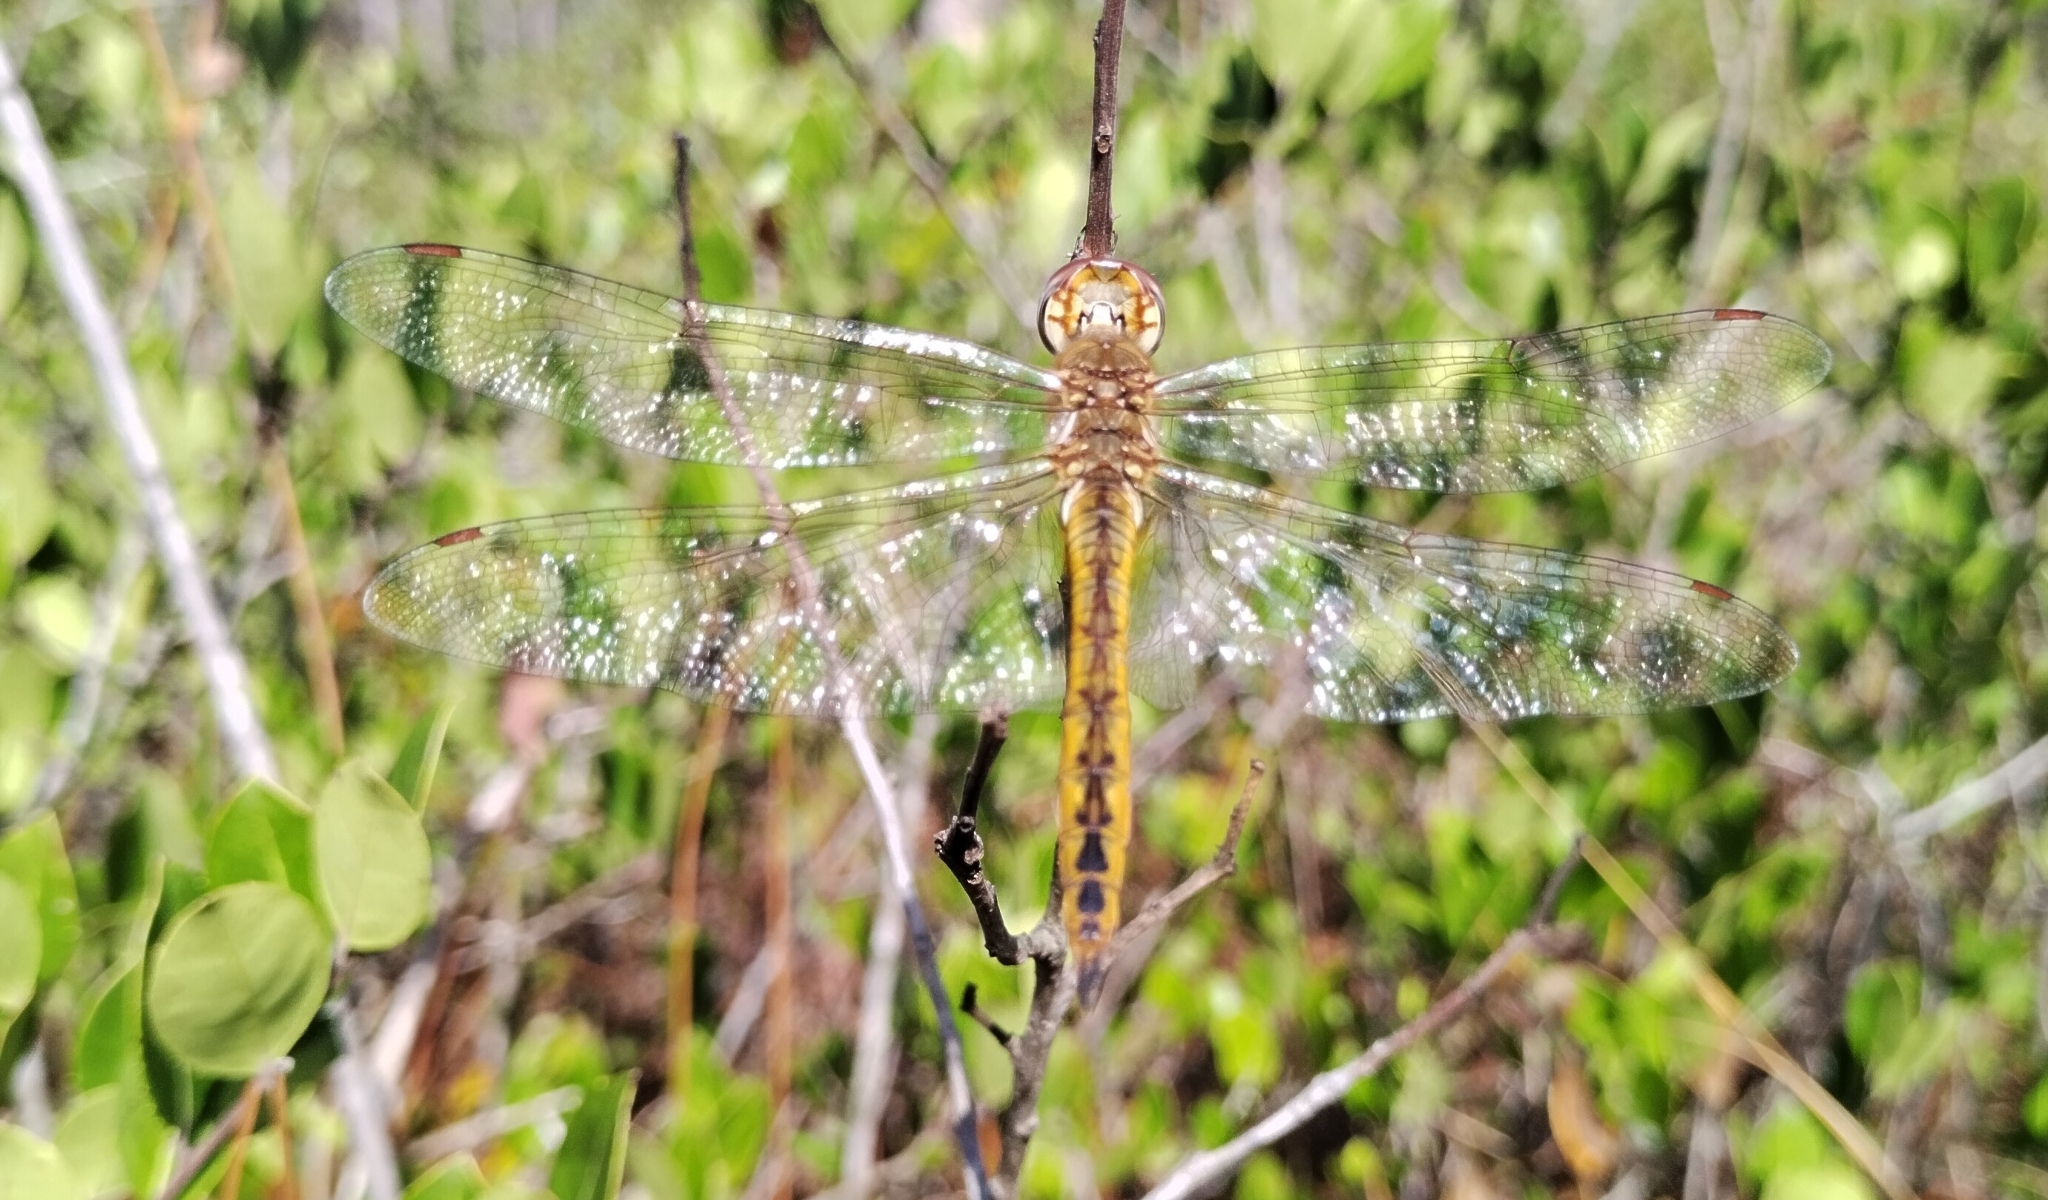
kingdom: Animalia
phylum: Arthropoda
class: Insecta
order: Odonata
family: Libellulidae
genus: Pantala
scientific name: Pantala flavescens
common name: Wandering glider
